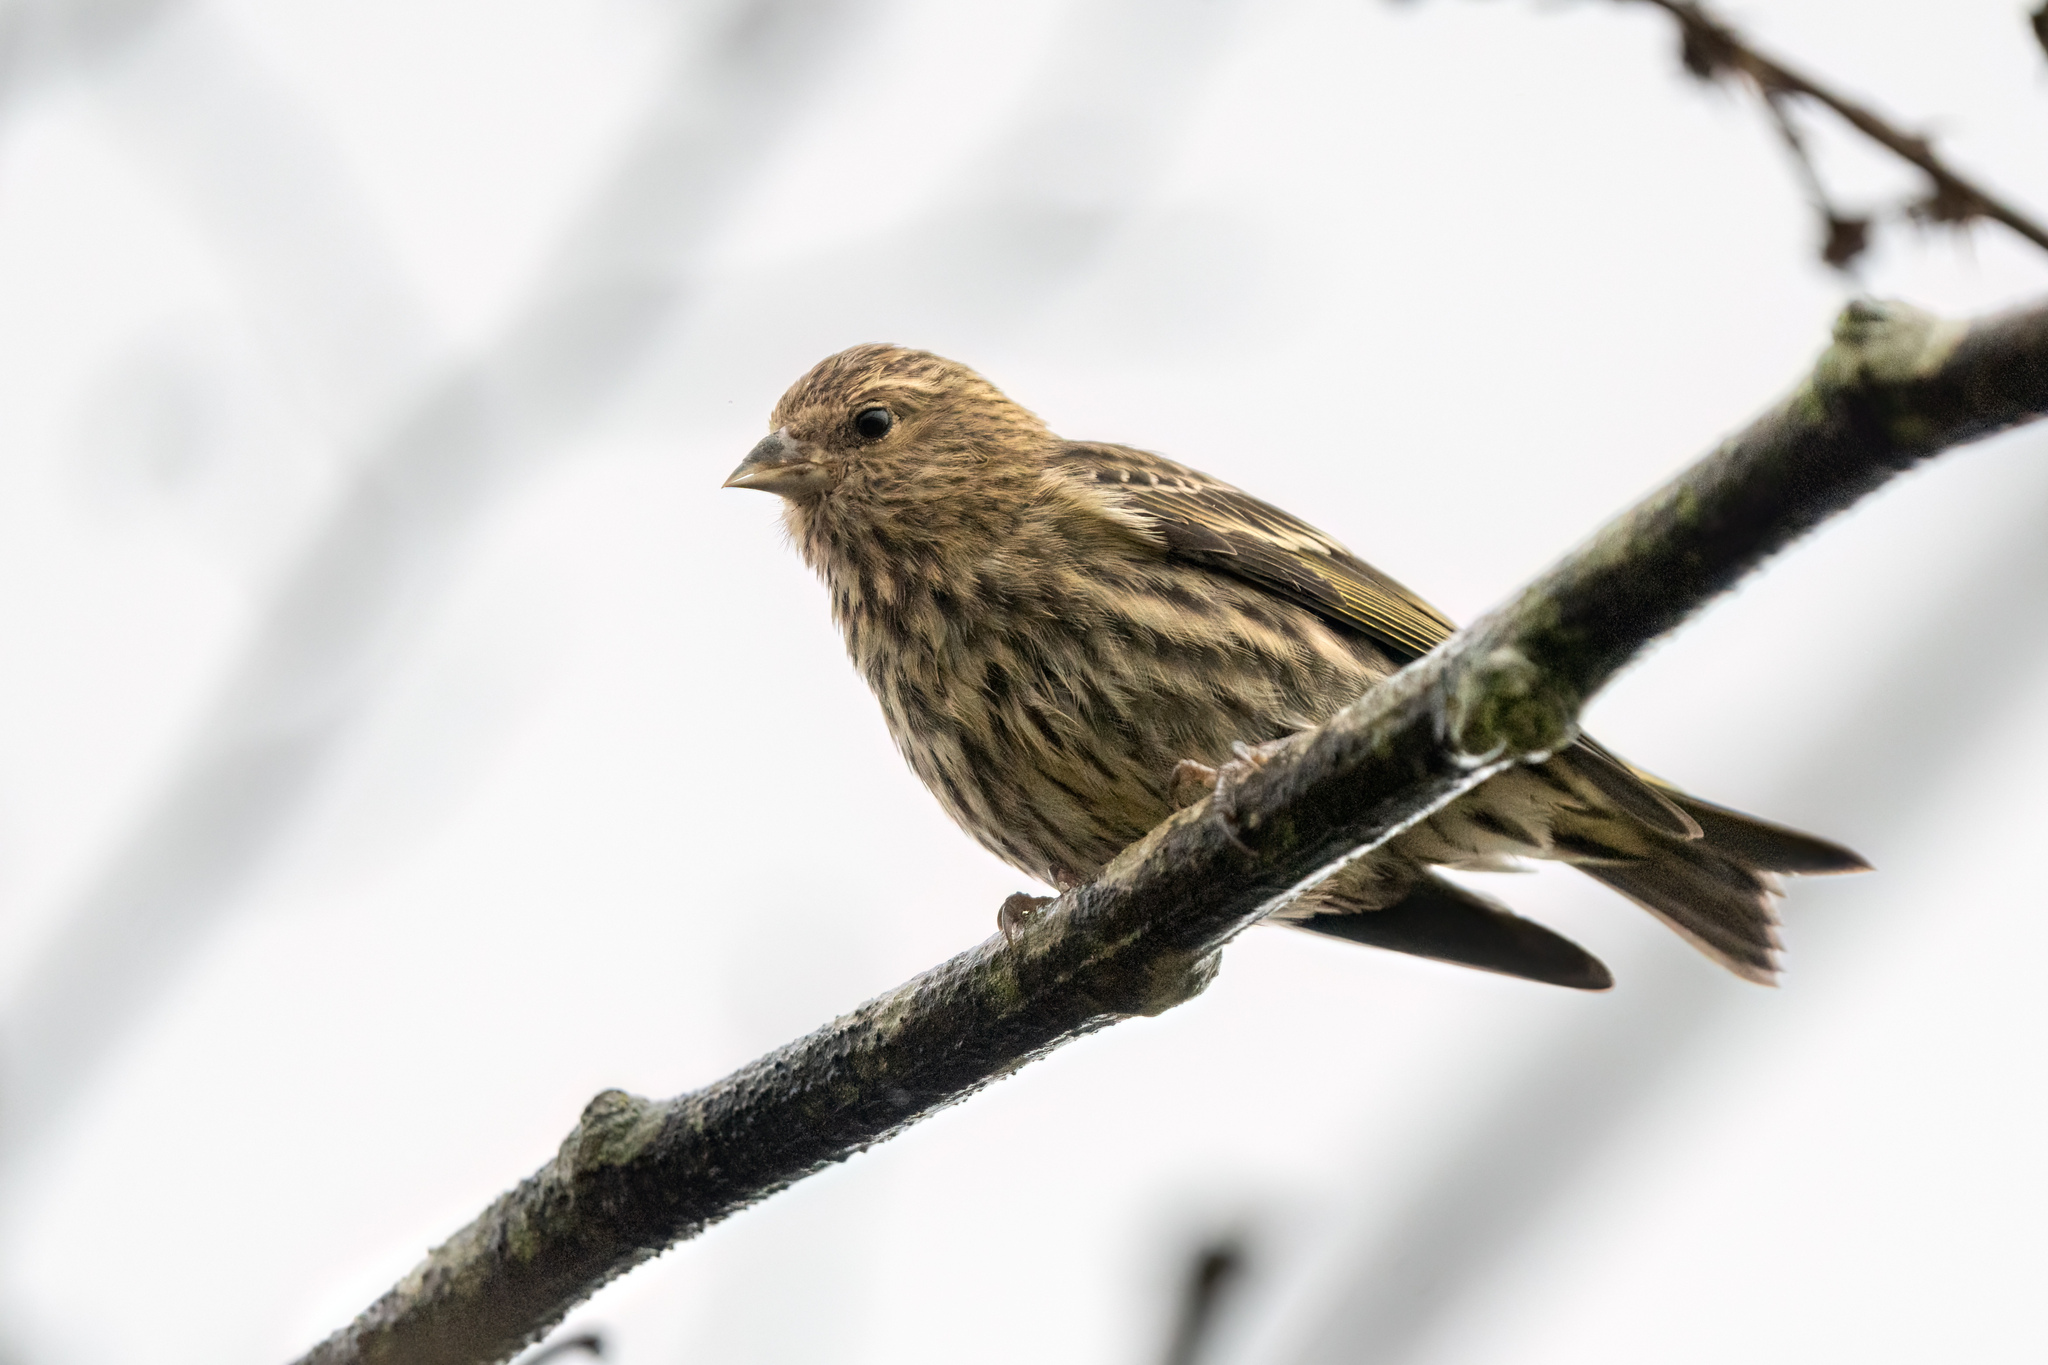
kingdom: Animalia
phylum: Chordata
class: Aves
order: Passeriformes
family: Fringillidae
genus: Spinus
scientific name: Spinus pinus
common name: Pine siskin
